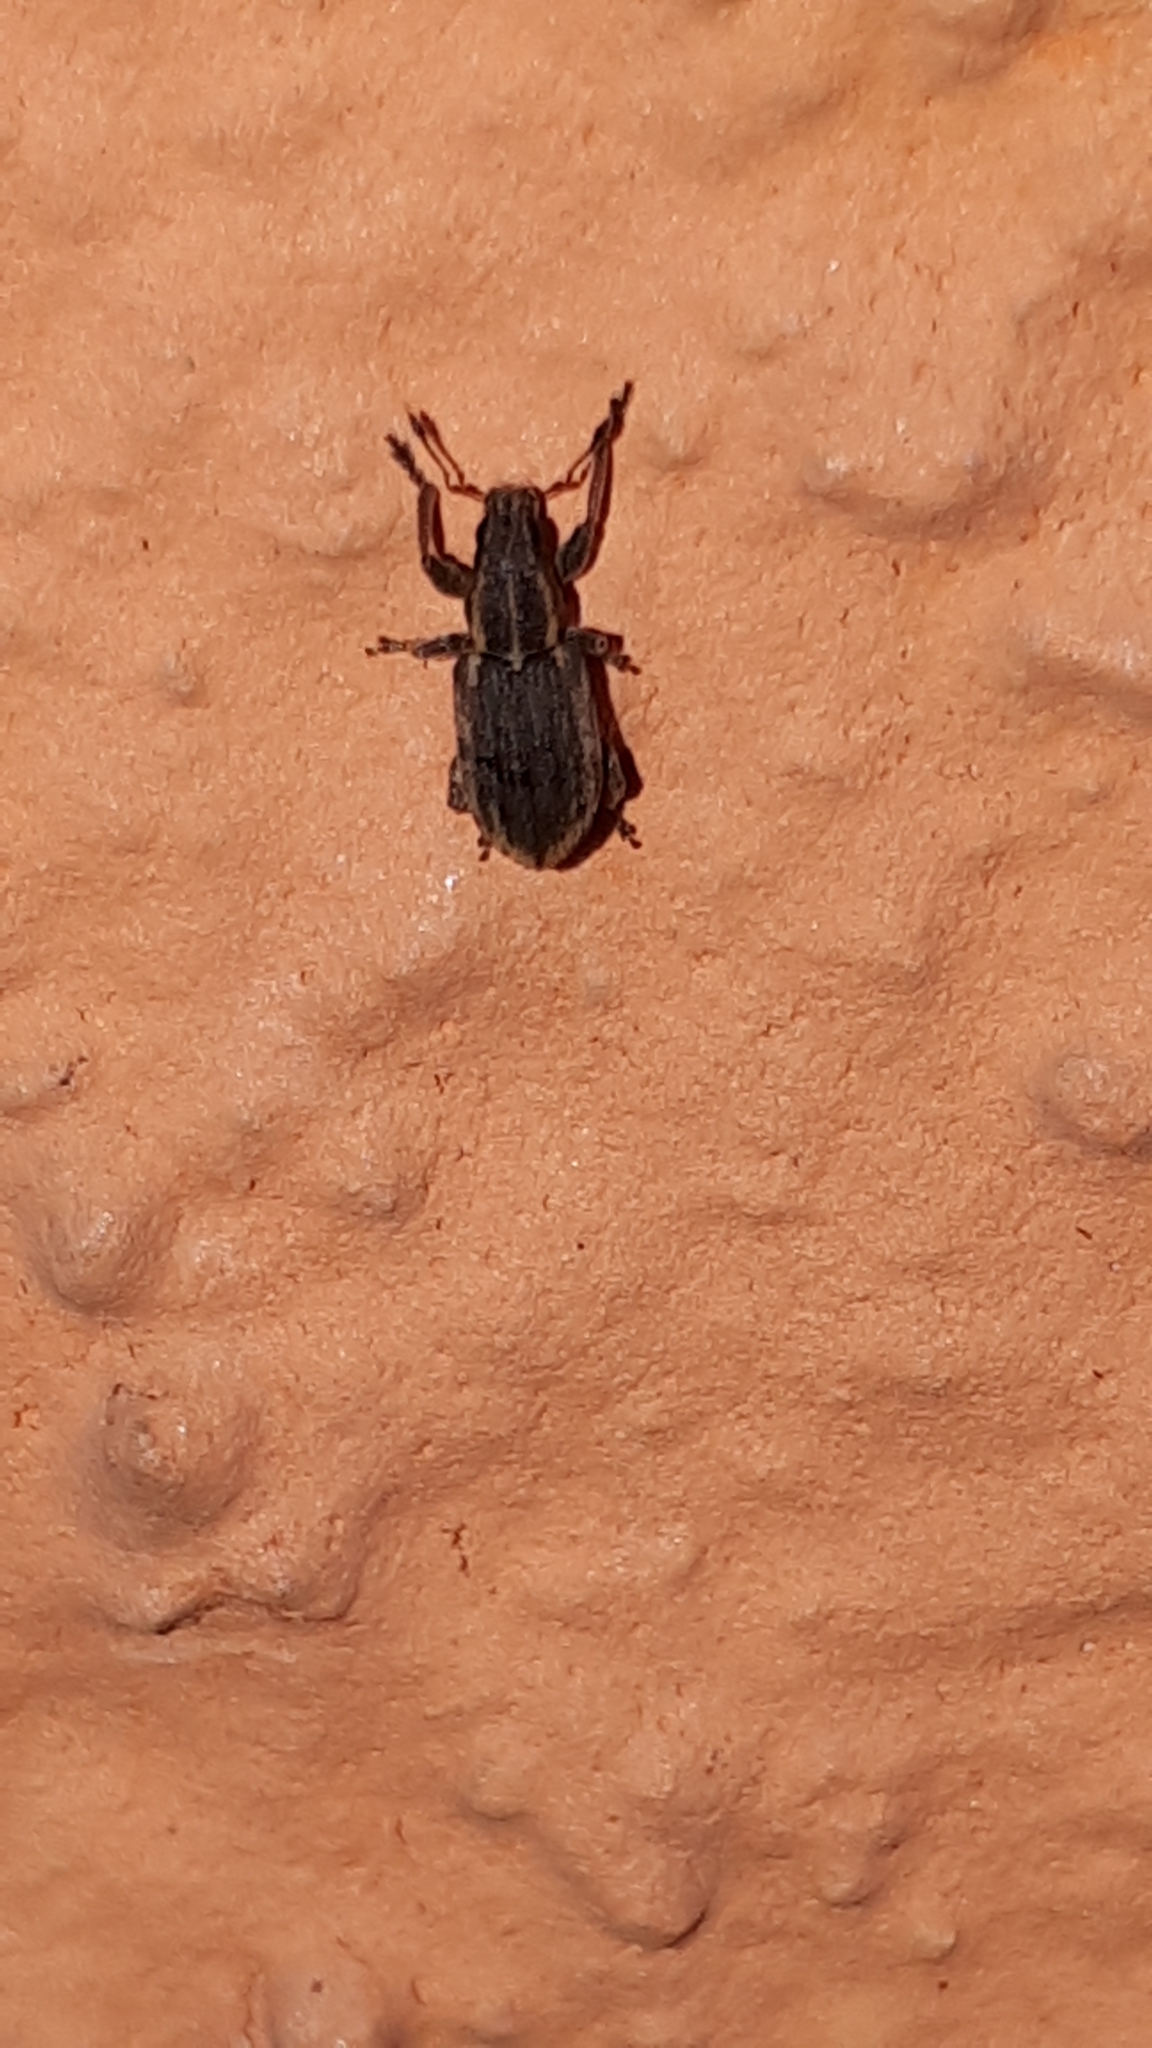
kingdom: Animalia
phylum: Arthropoda
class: Insecta
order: Coleoptera
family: Curculionidae
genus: Sitona
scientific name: Sitona humeralis
